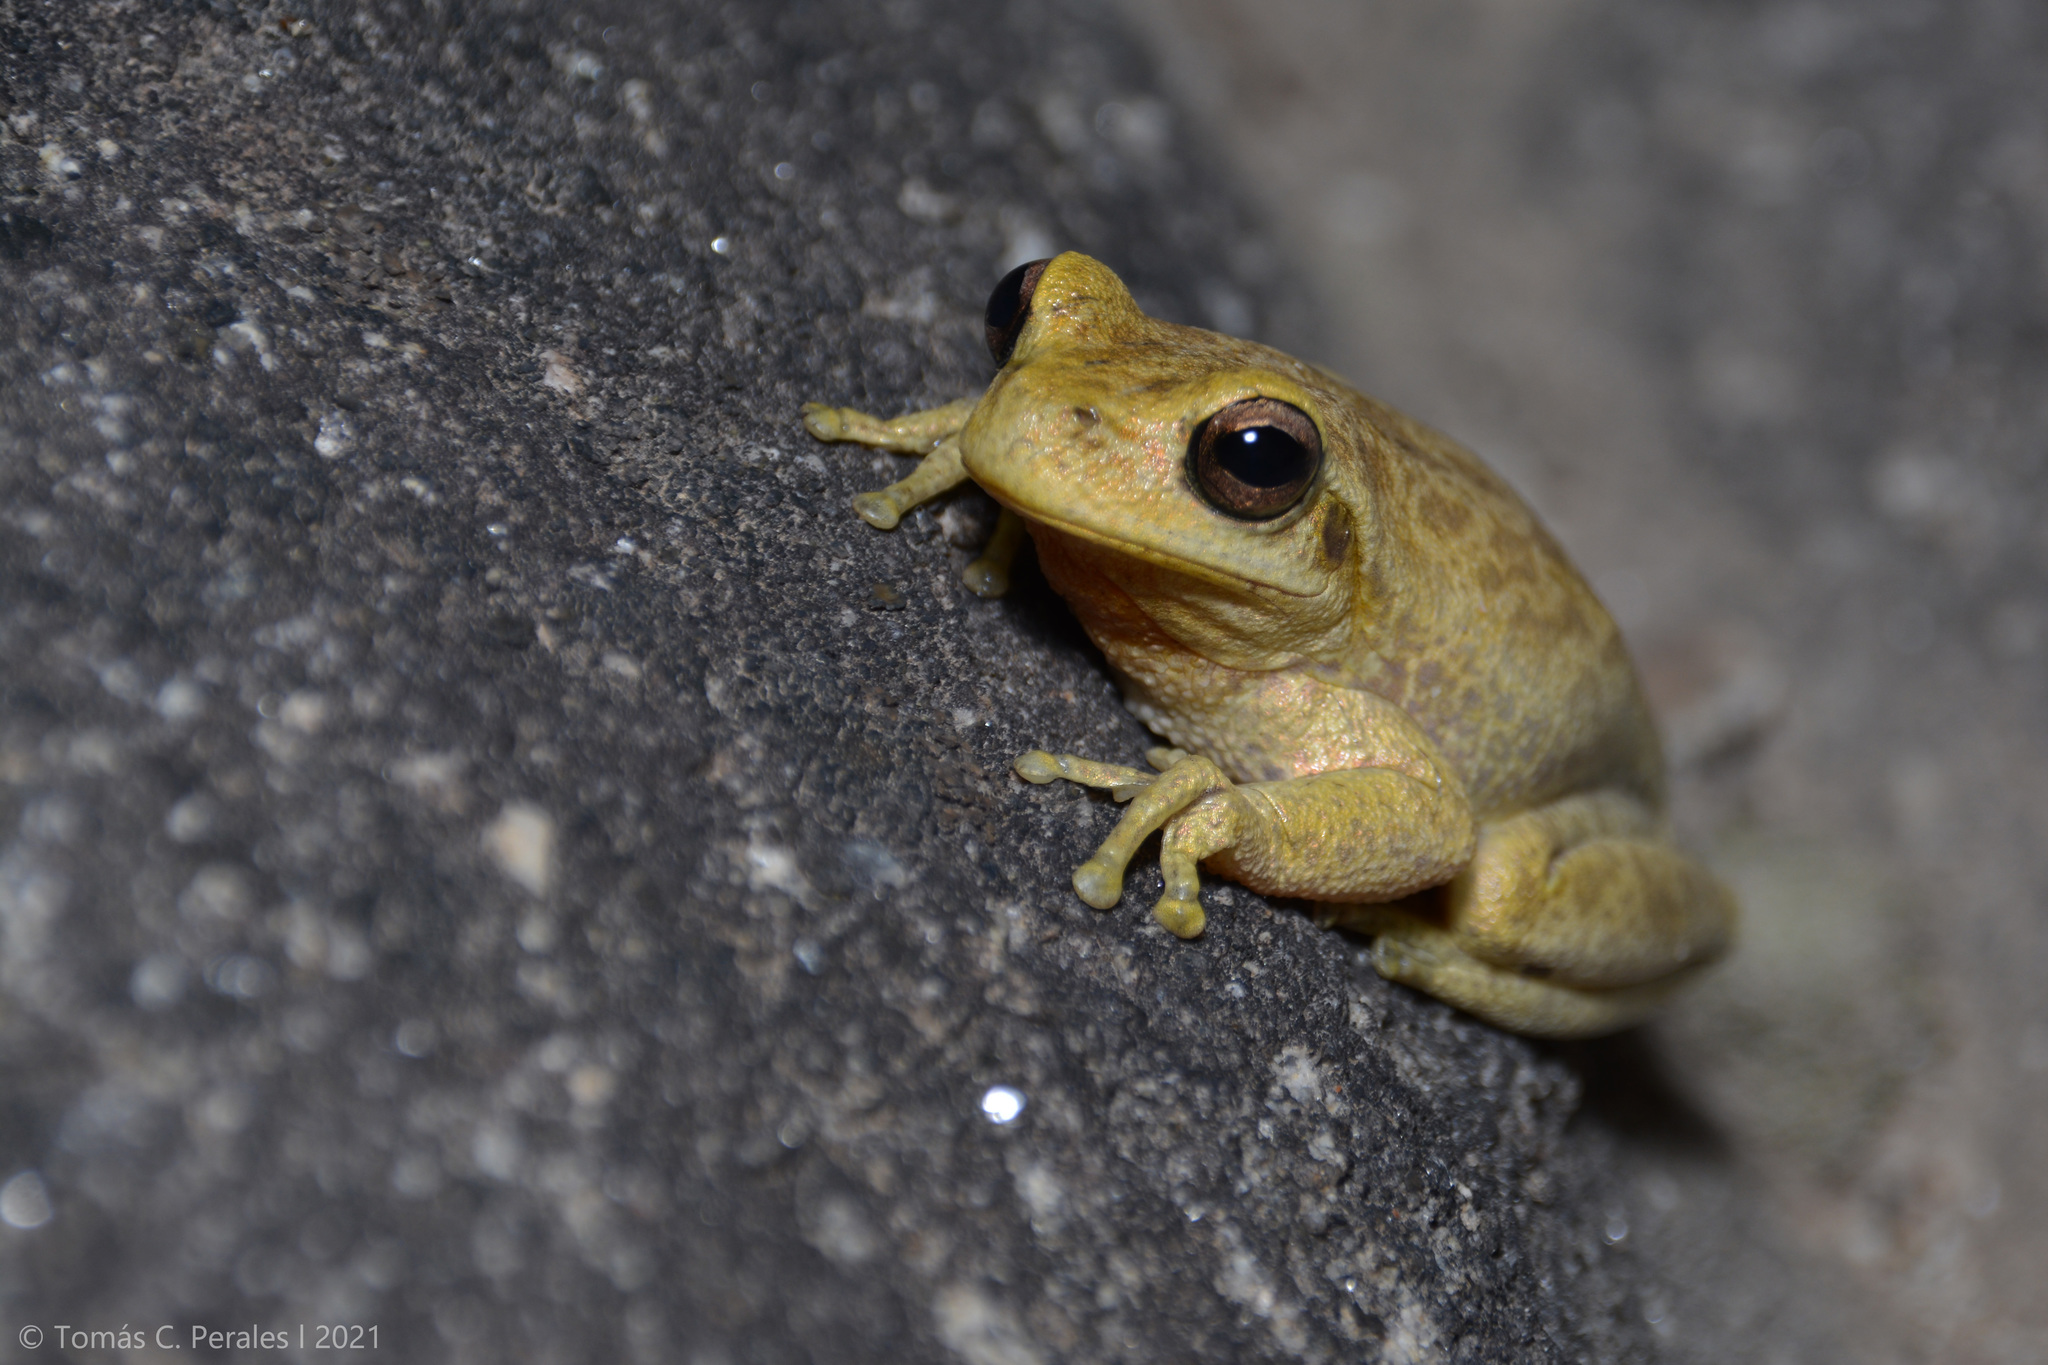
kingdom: Animalia
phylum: Chordata
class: Amphibia
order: Anura
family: Hylidae
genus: Boana
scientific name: Boana cordobae
